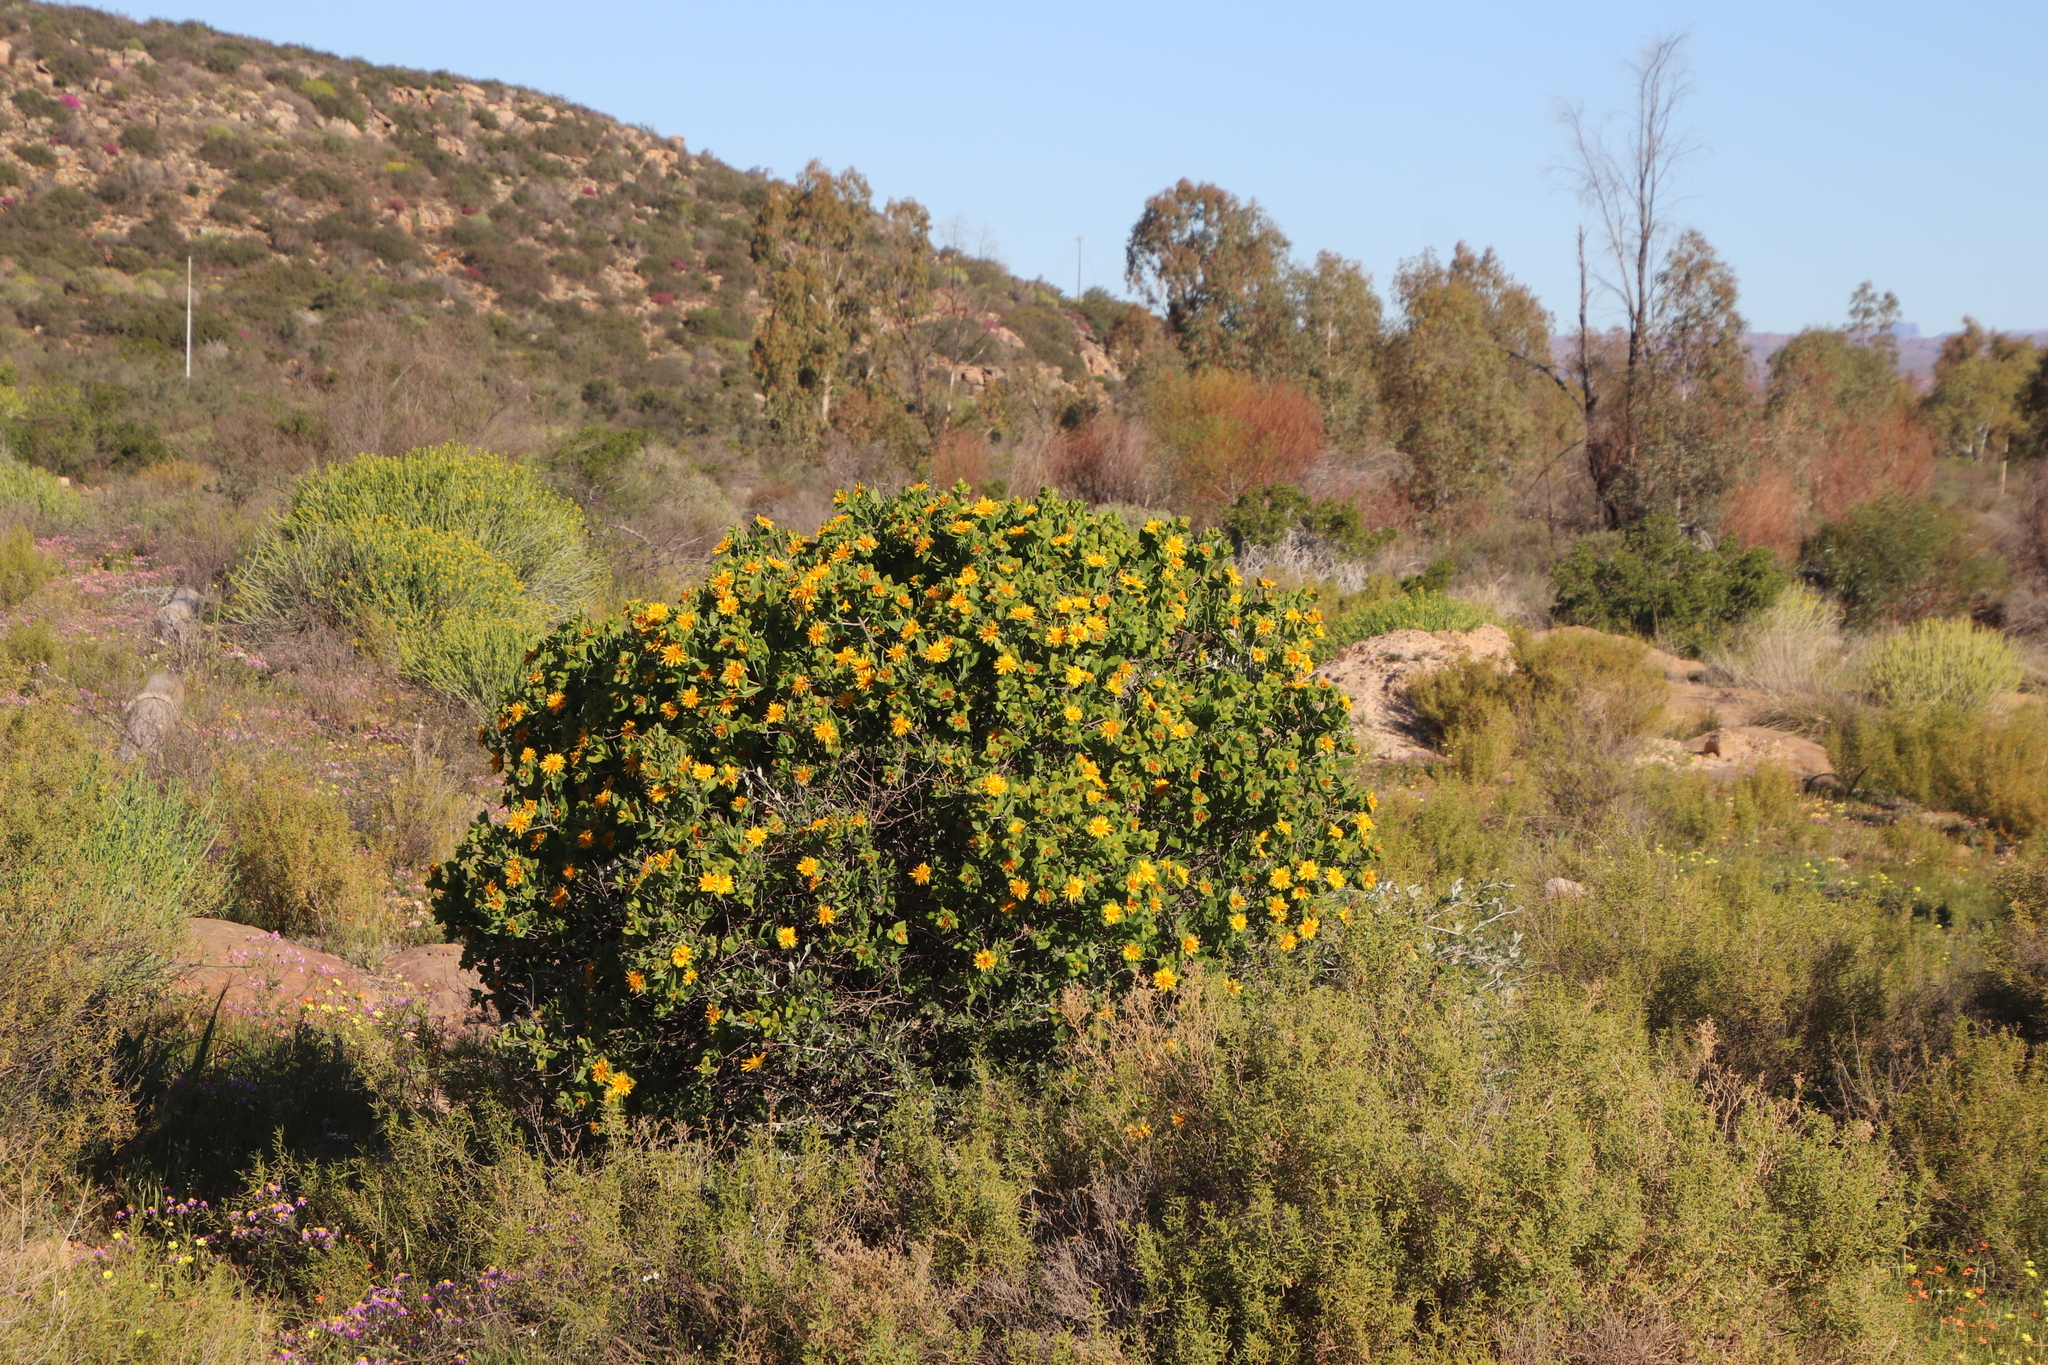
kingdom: Plantae
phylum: Tracheophyta
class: Magnoliopsida
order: Asterales
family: Asteraceae
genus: Didelta
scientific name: Didelta spinosa
